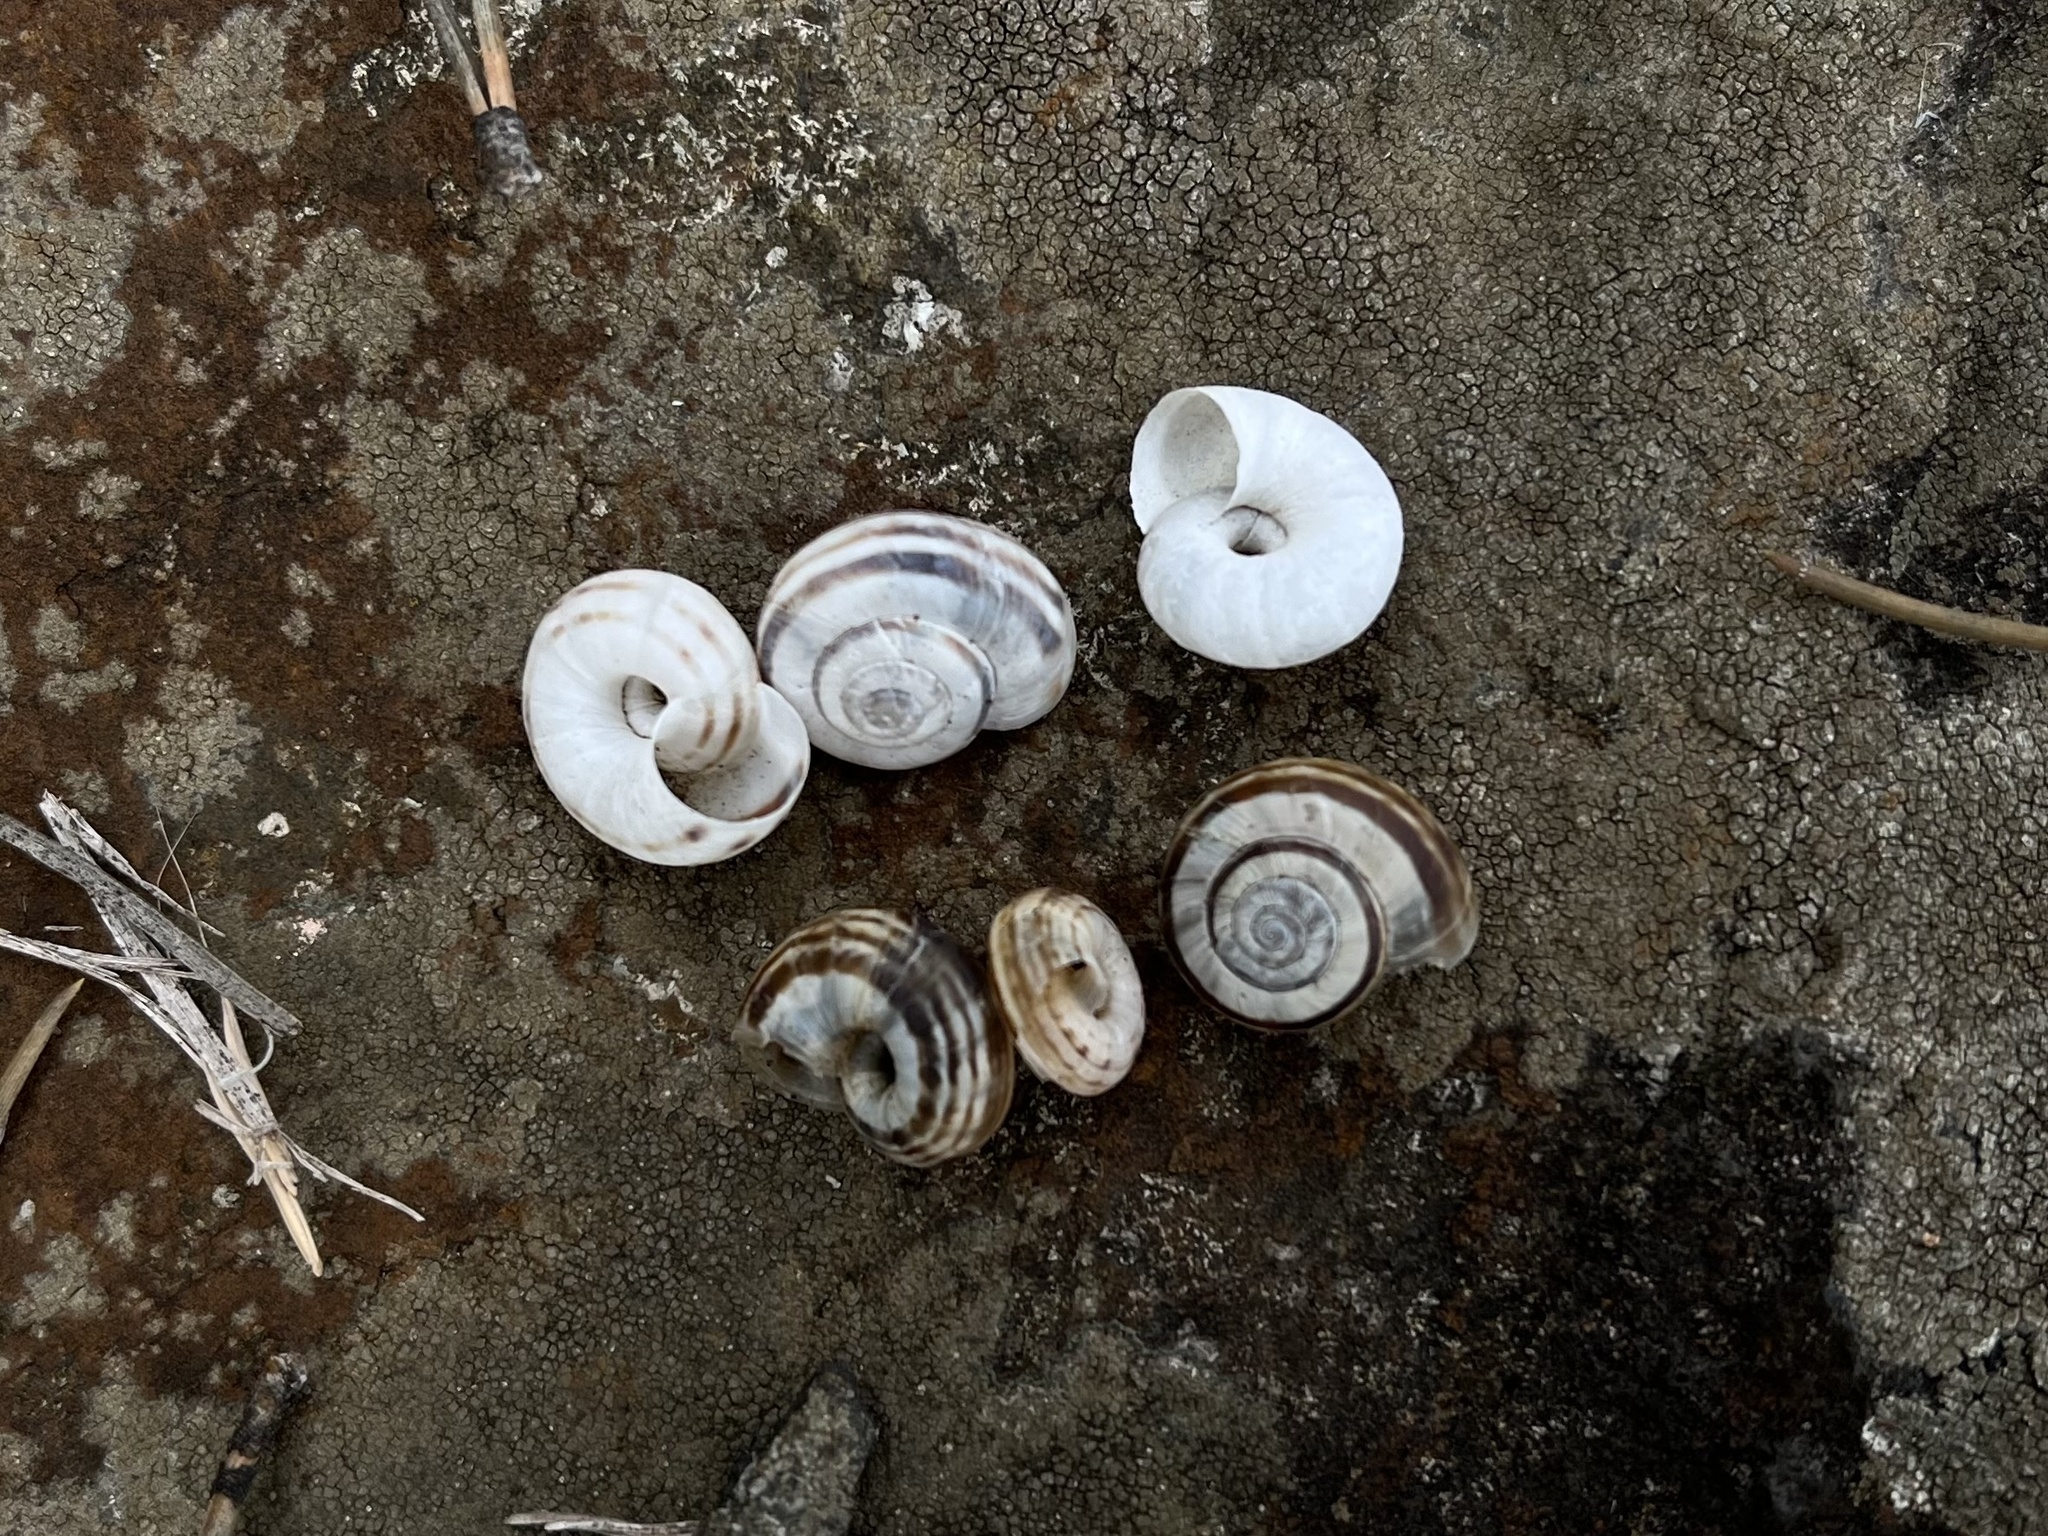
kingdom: Animalia
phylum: Mollusca
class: Gastropoda
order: Stylommatophora
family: Geomitridae
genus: Xerolenta
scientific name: Xerolenta obvia
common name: White heath snail
